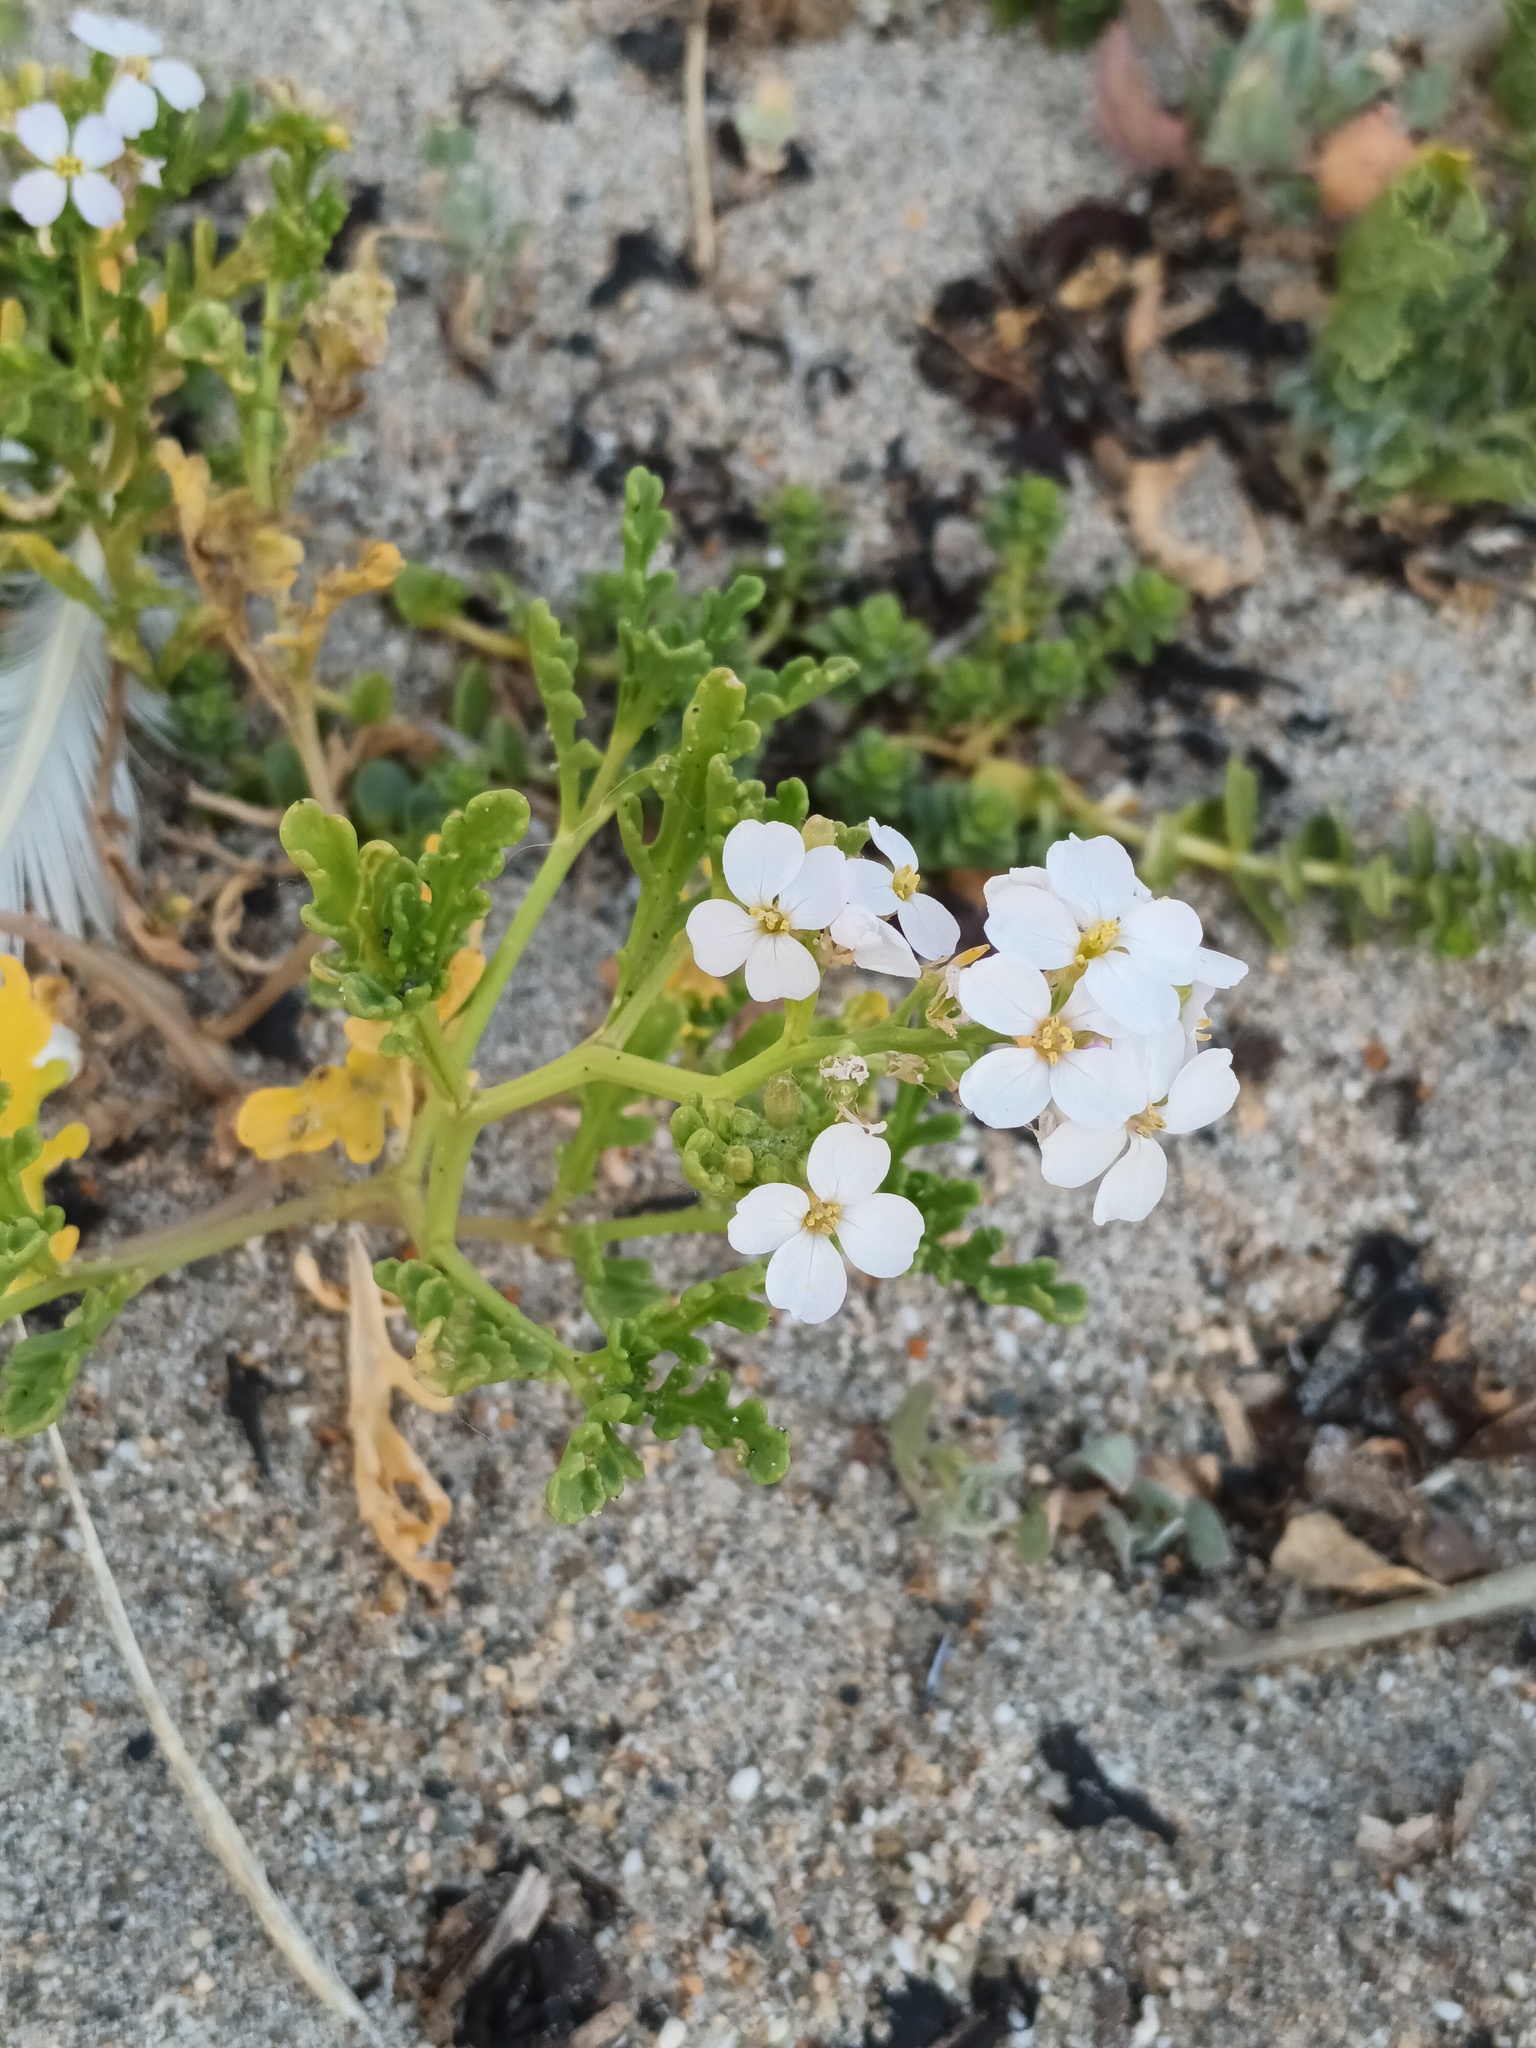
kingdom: Plantae
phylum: Tracheophyta
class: Magnoliopsida
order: Brassicales
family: Brassicaceae
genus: Cakile
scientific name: Cakile maritima
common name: Sea rocket
